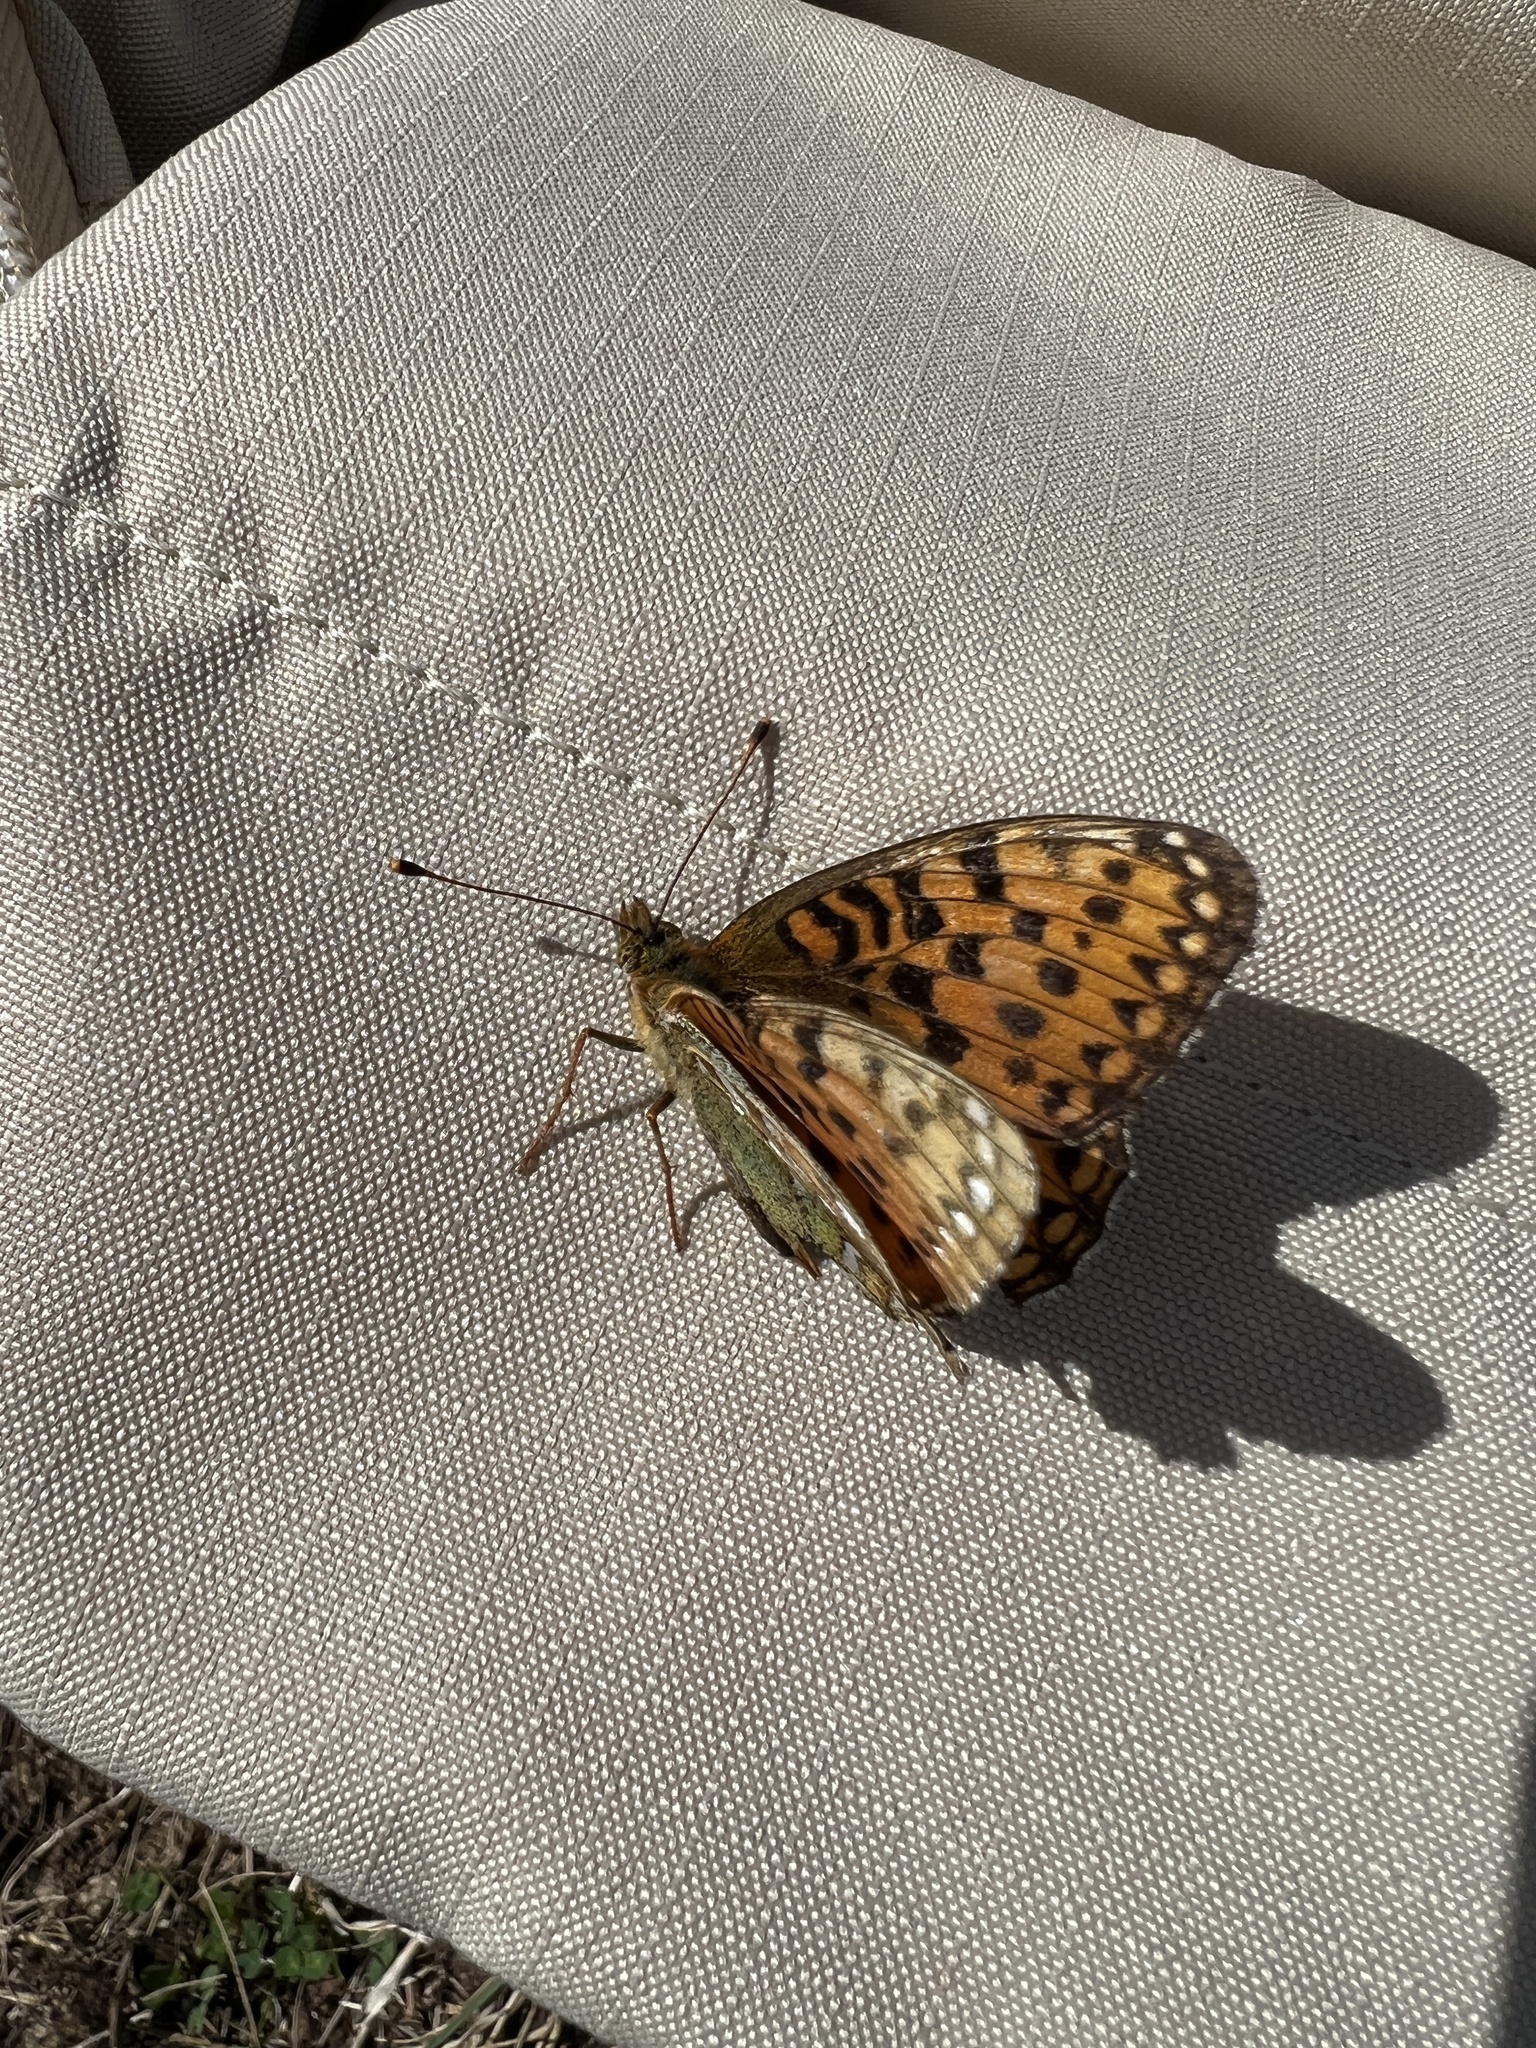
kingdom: Animalia
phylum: Arthropoda
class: Insecta
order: Lepidoptera
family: Nymphalidae
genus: Speyeria
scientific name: Speyeria aglaja
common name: Dark green fritillary
